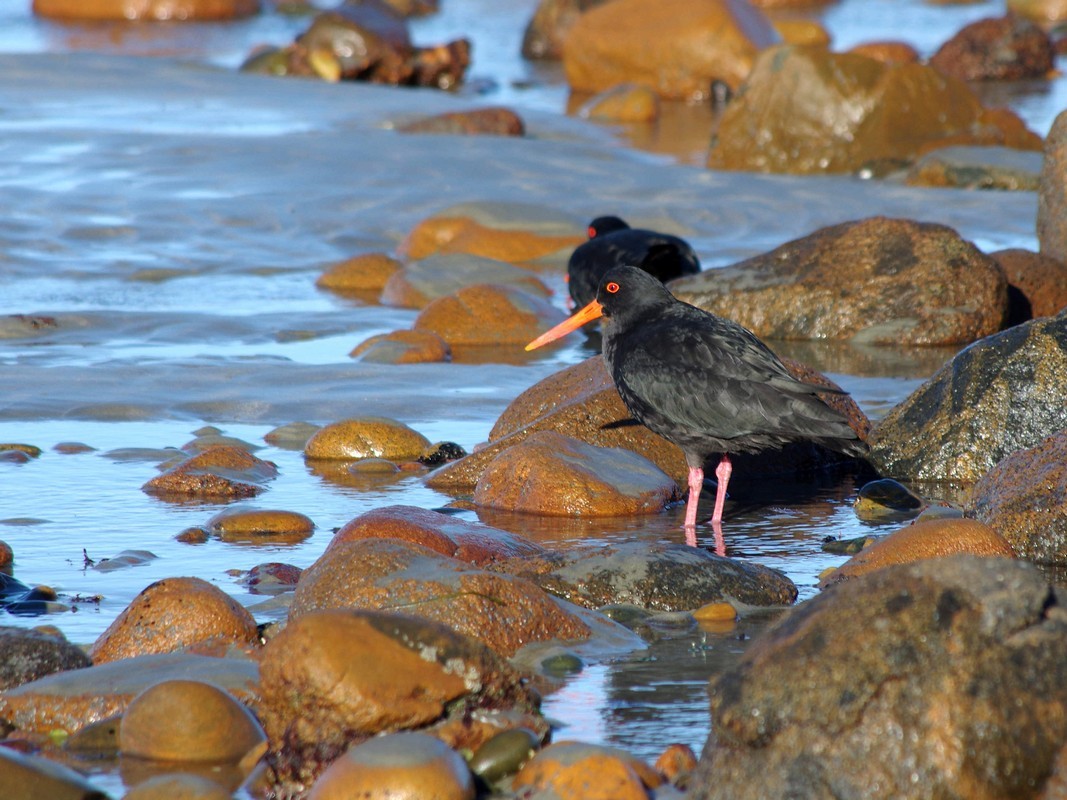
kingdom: Animalia
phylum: Chordata
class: Aves
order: Charadriiformes
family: Haematopodidae
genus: Haematopus
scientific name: Haematopus unicolor
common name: Variable oystercatcher
